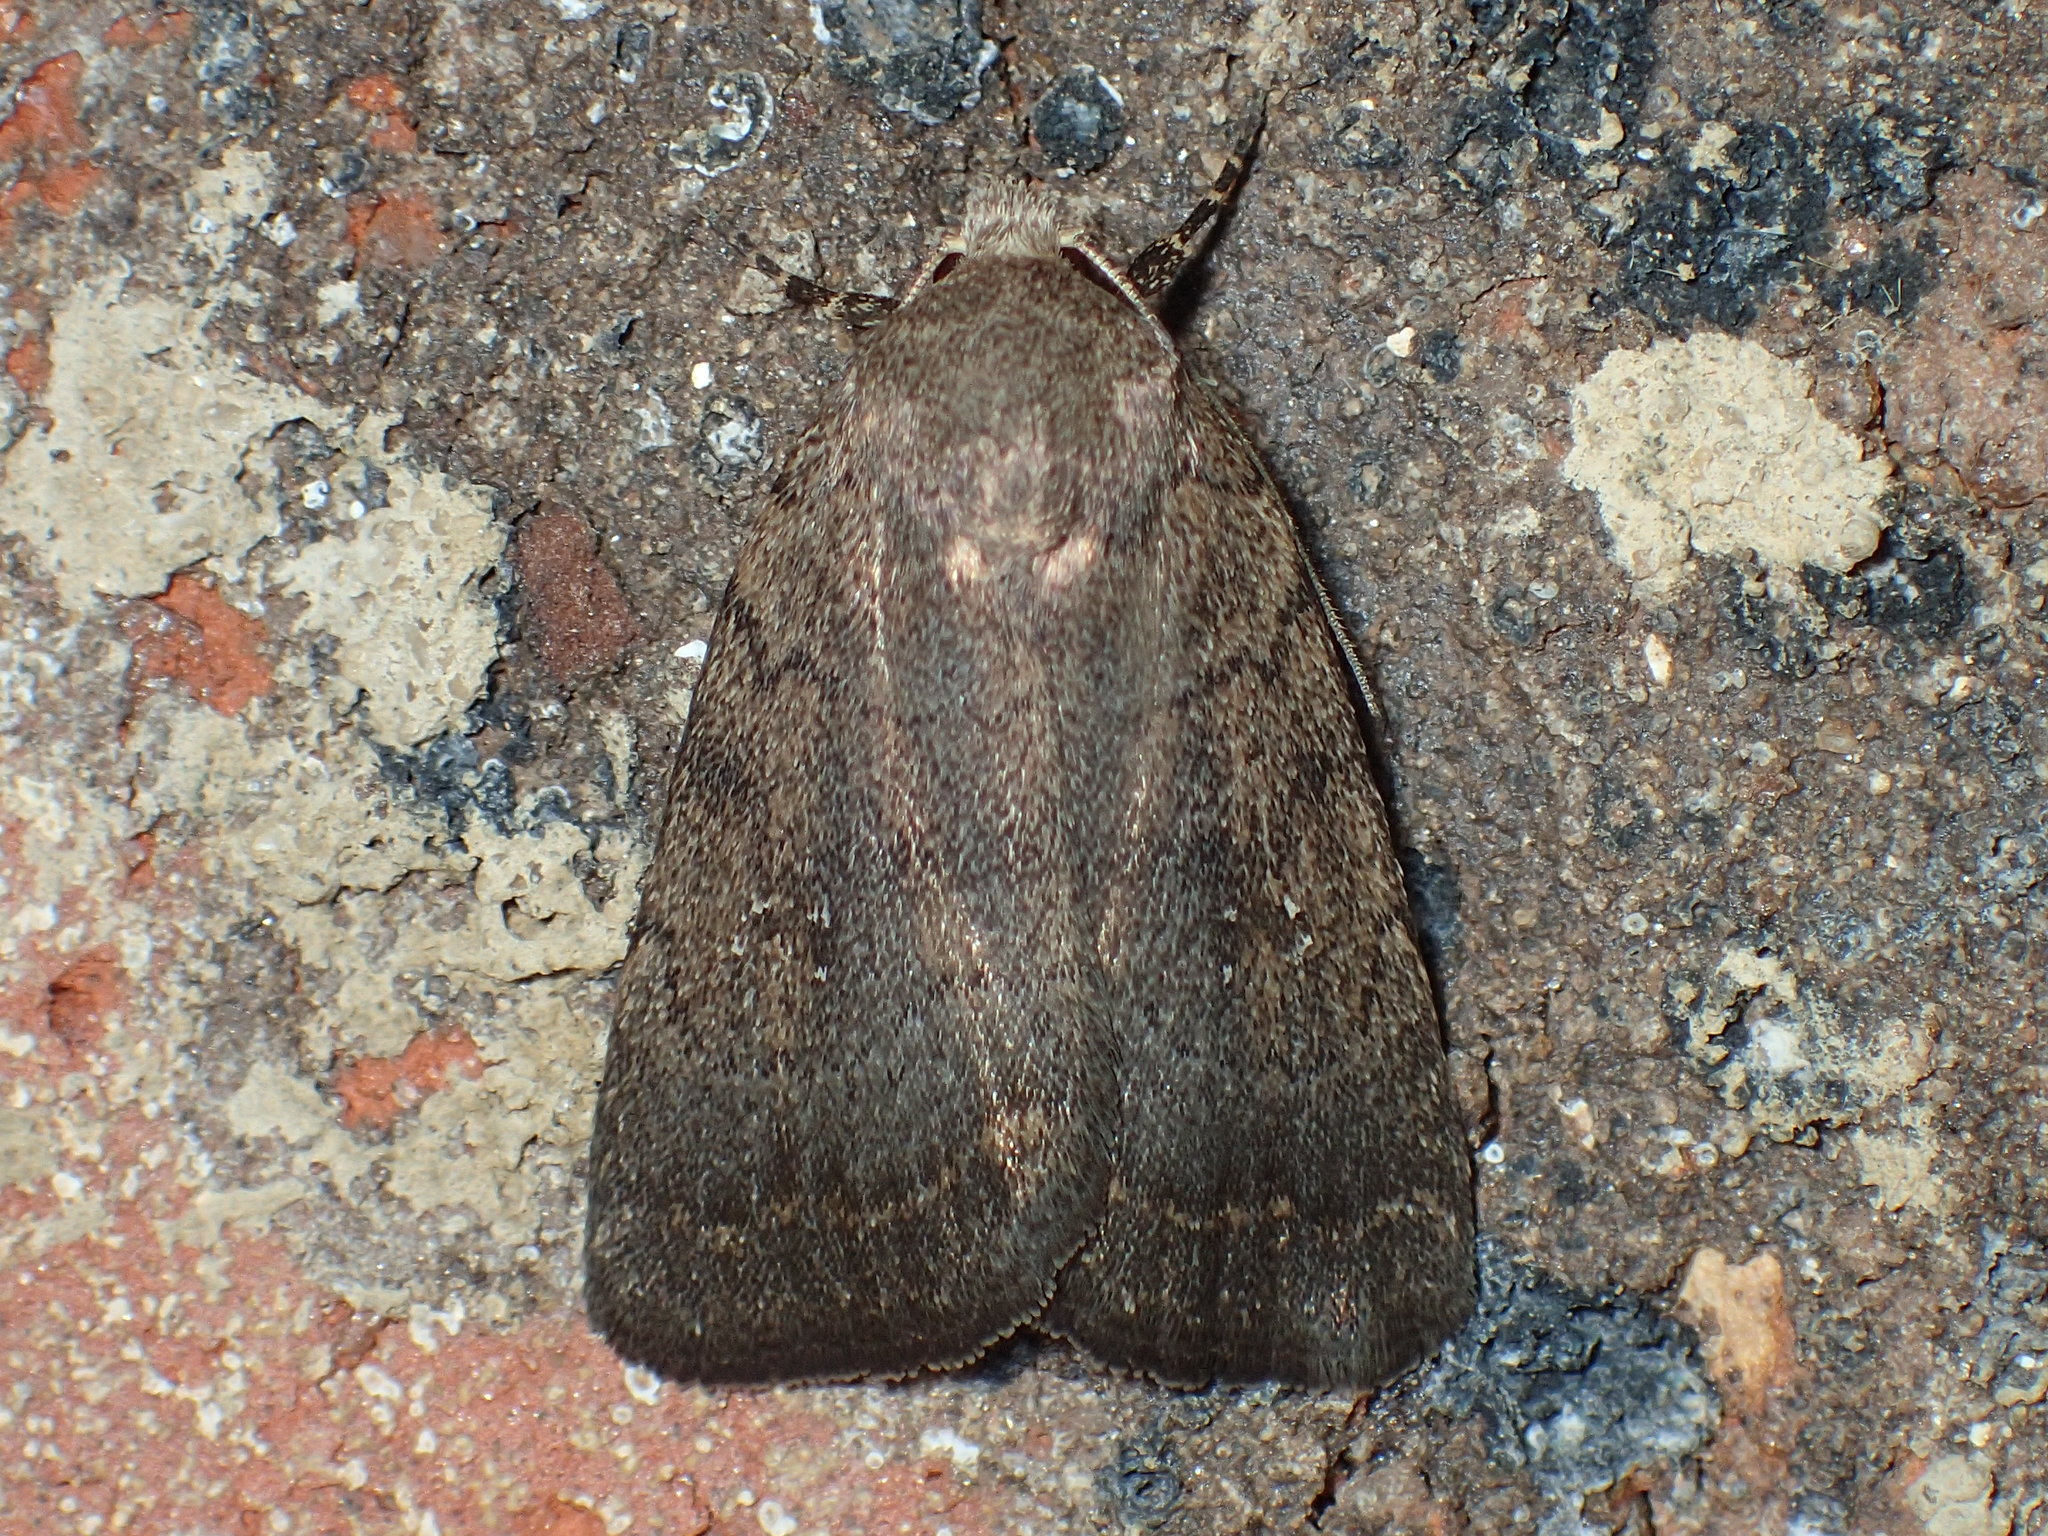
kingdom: Animalia
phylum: Arthropoda
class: Insecta
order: Lepidoptera
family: Noctuidae
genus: Athetis
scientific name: Athetis tarda
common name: Slowpoke moth
